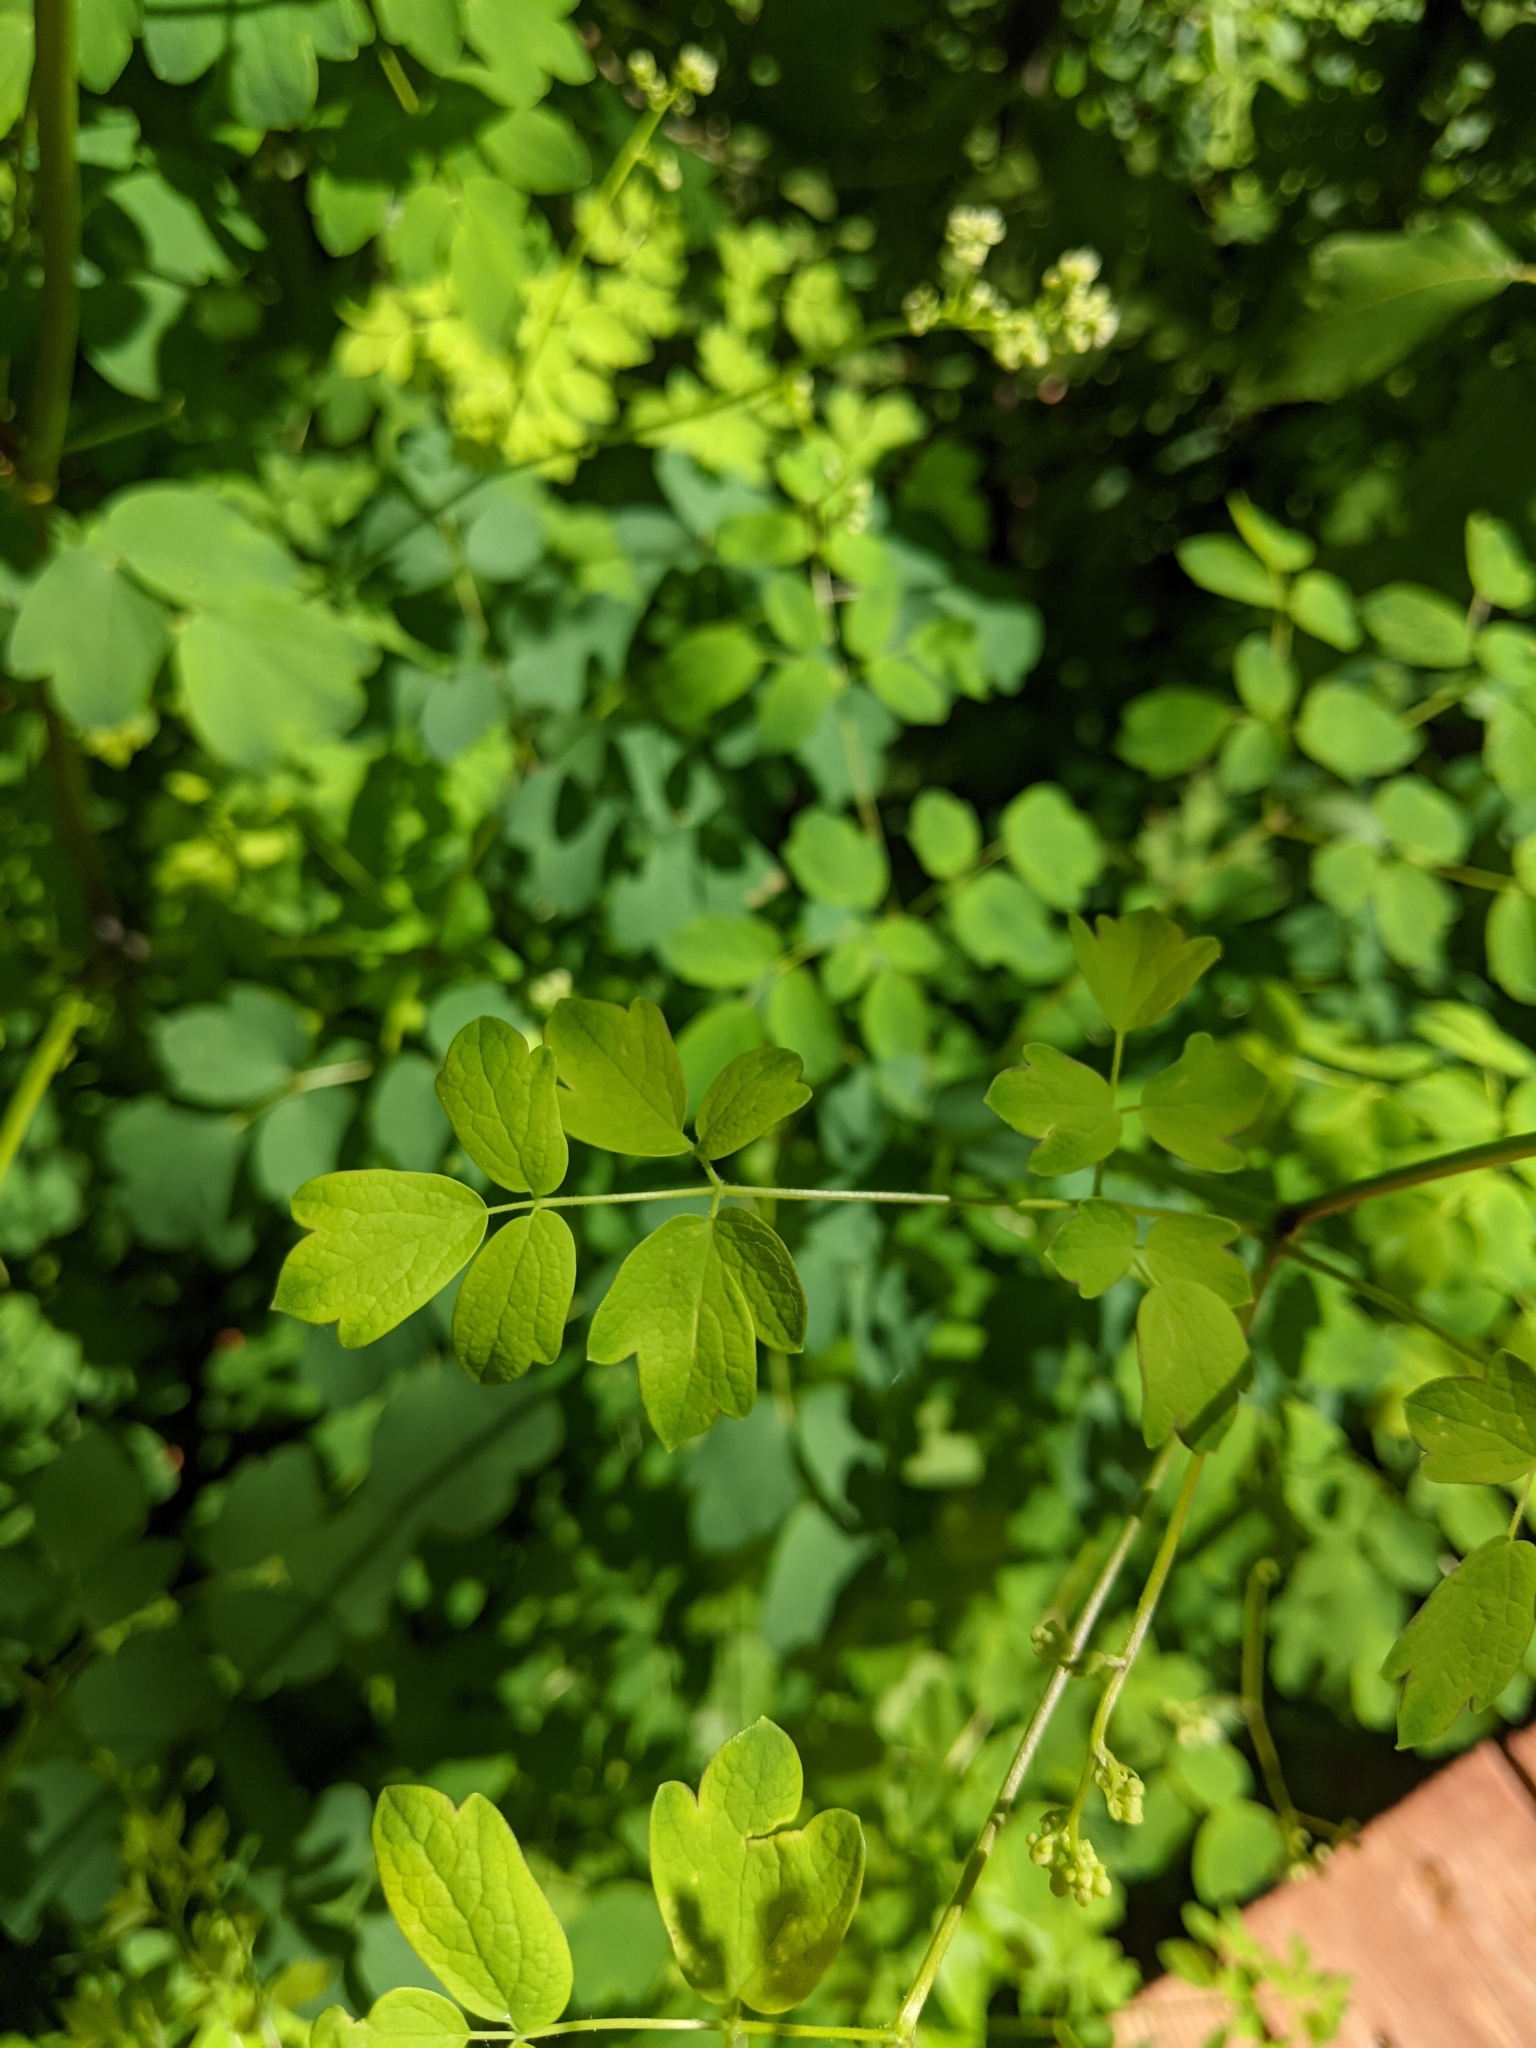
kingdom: Plantae
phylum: Tracheophyta
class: Magnoliopsida
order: Ranunculales
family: Ranunculaceae
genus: Thalictrum
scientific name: Thalictrum pubescens
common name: King-of-the-meadow
